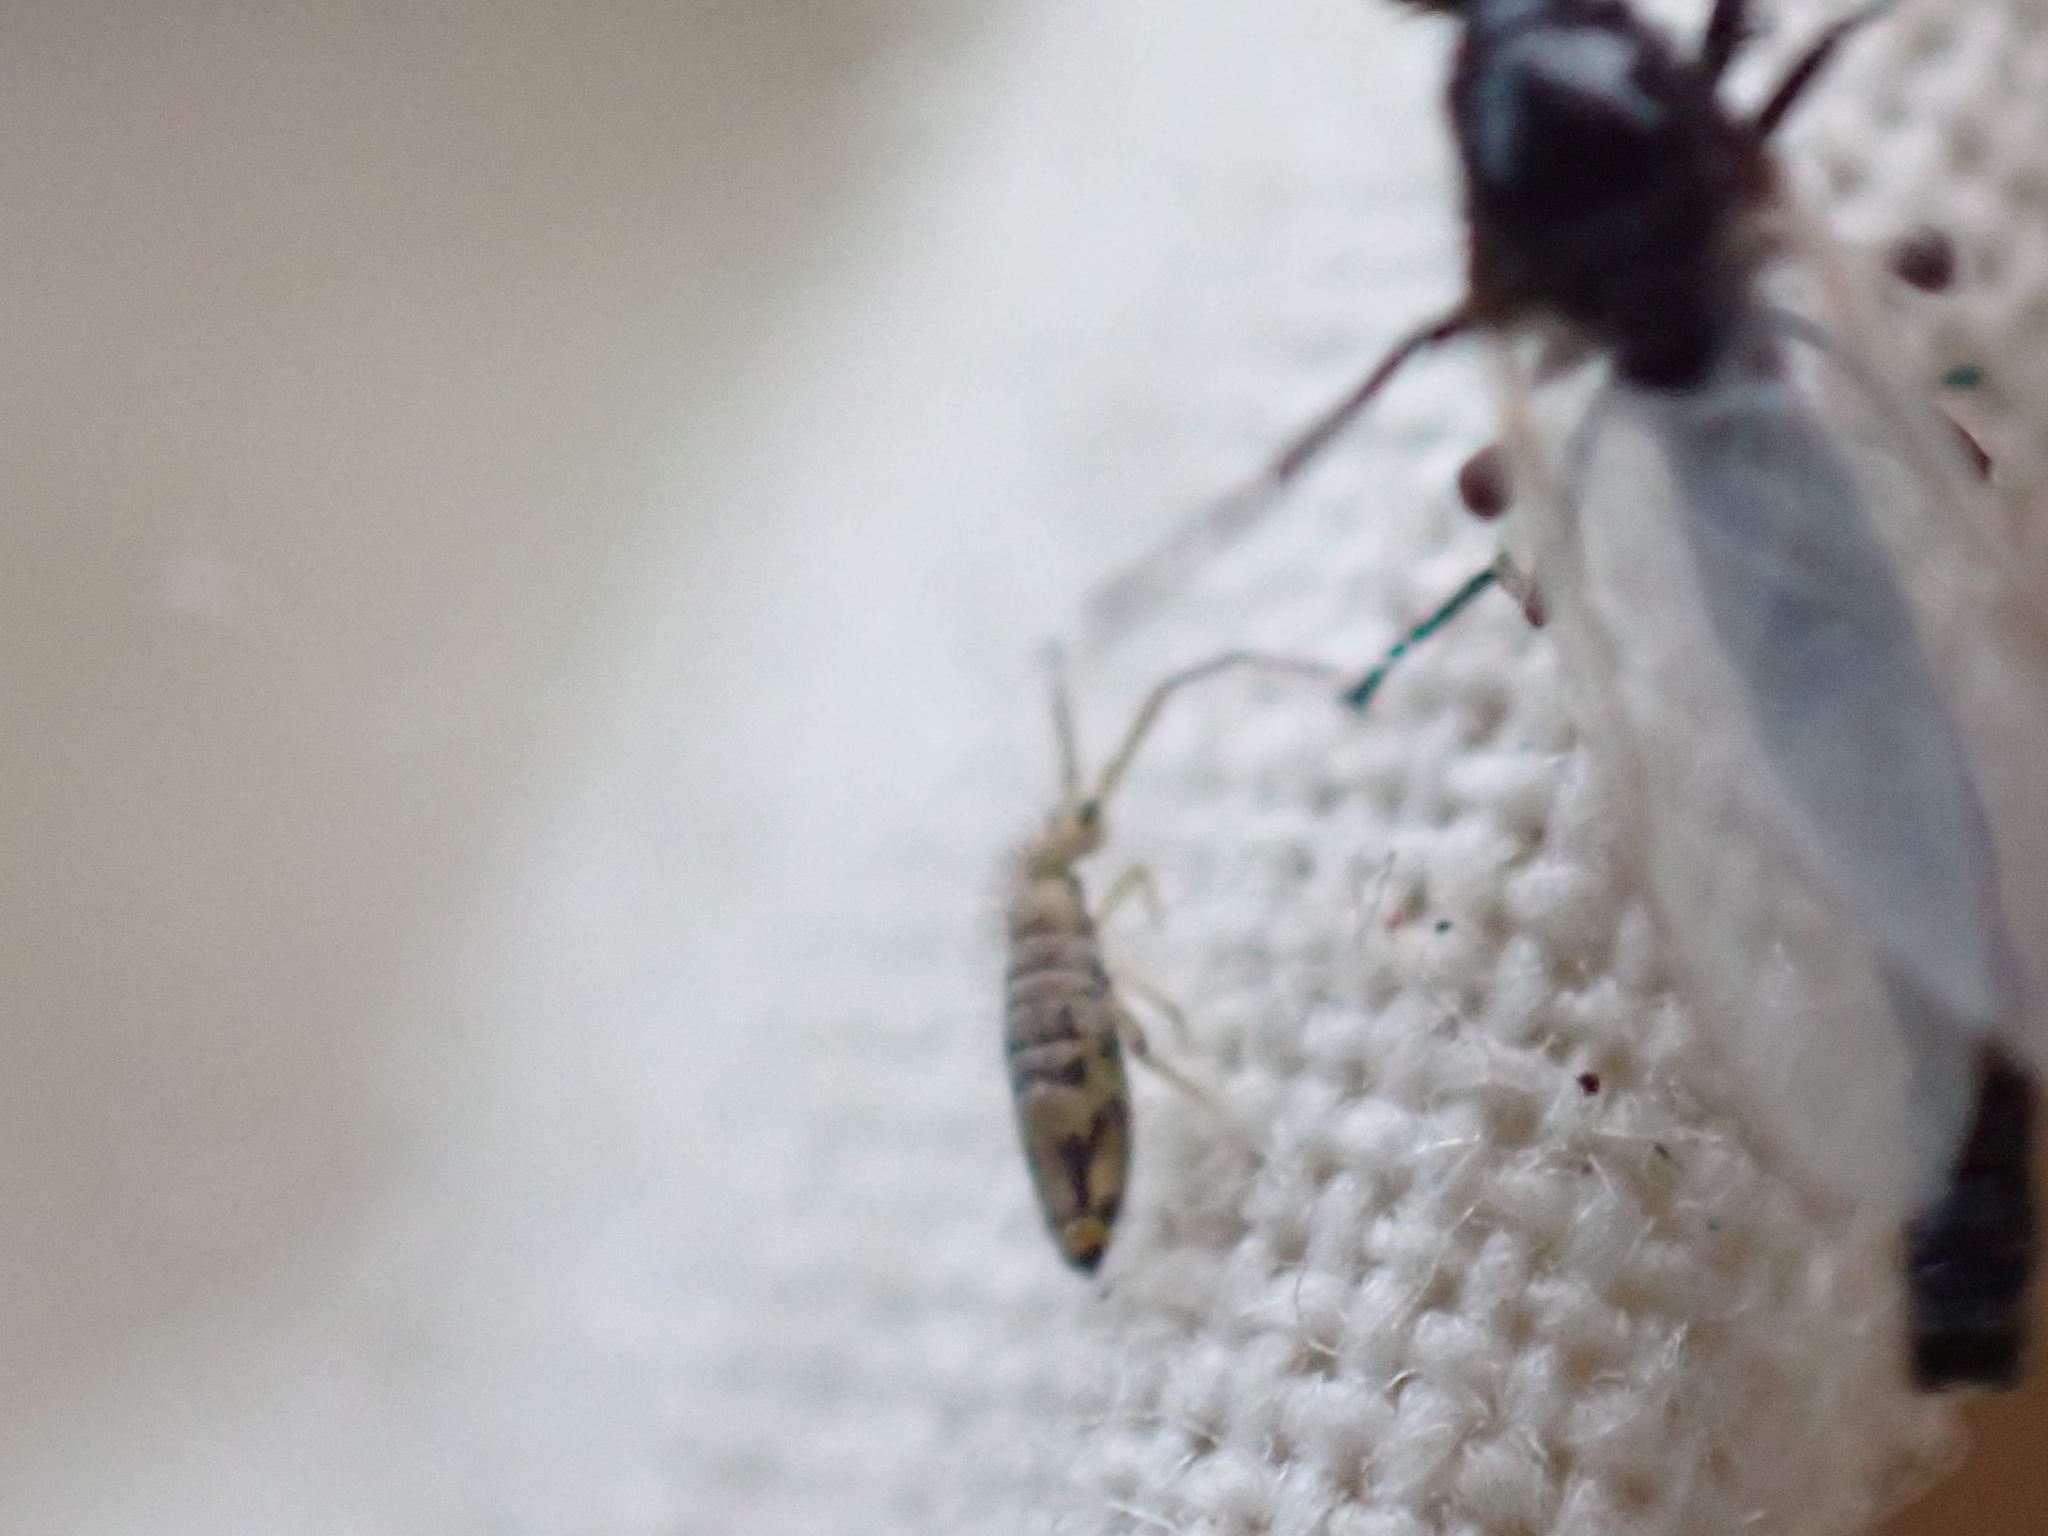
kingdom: Animalia
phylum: Arthropoda
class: Collembola
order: Entomobryomorpha
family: Entomobryidae
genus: Entomobrya
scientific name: Entomobrya nivalis
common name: Cosmopolitan springtail
